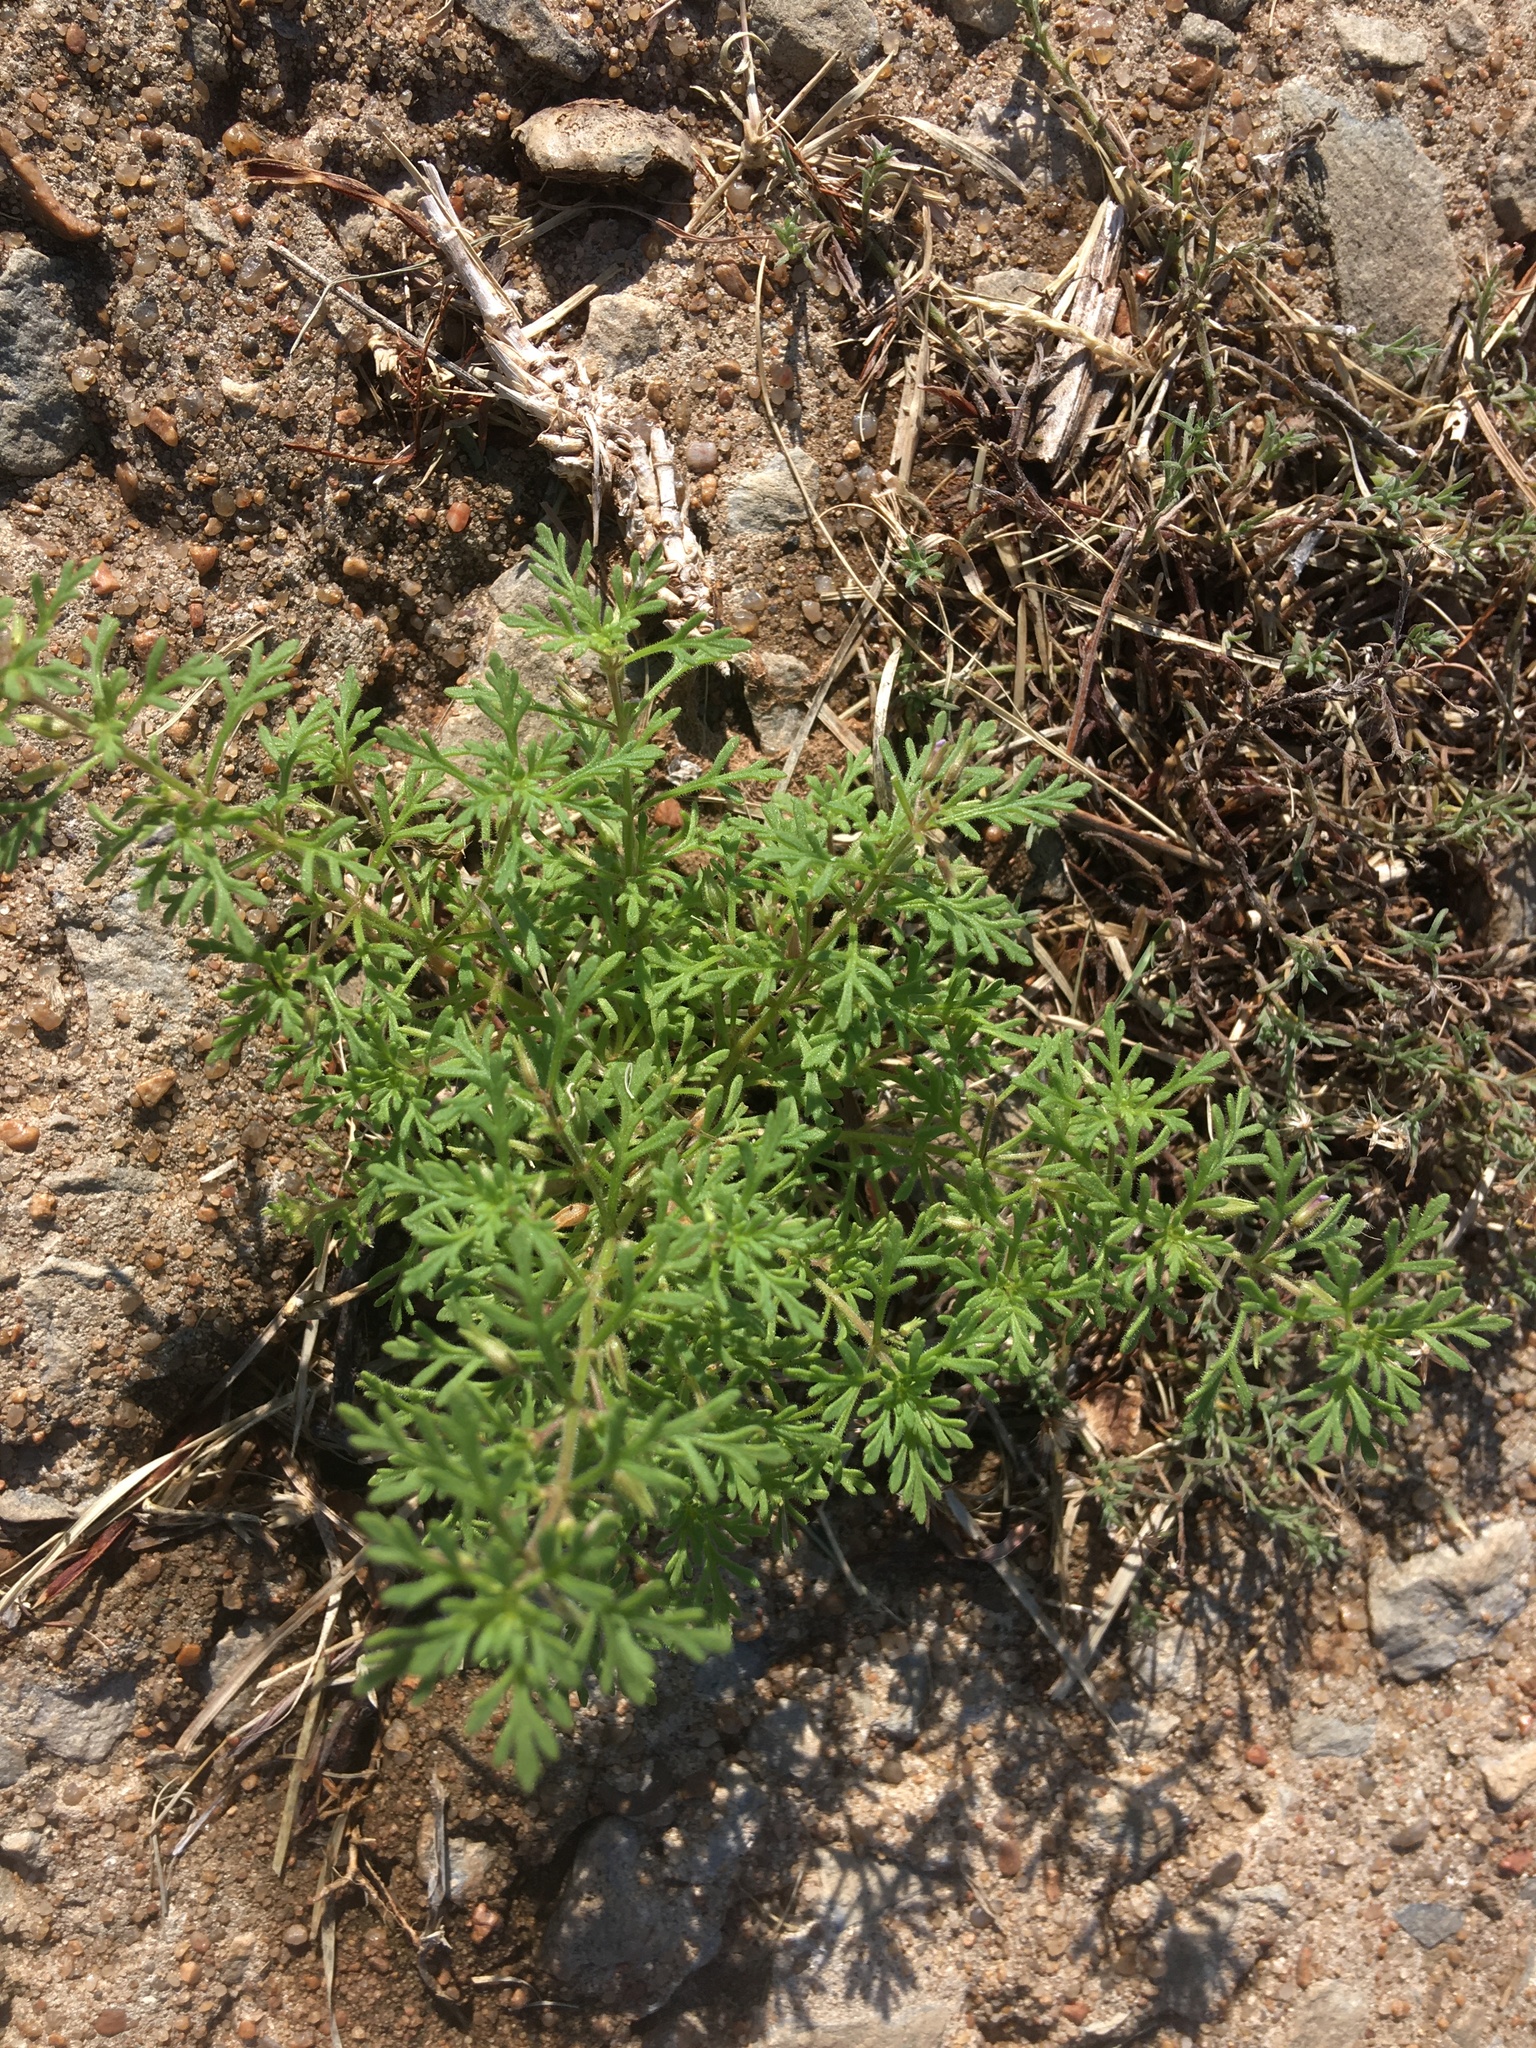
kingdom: Plantae
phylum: Tracheophyta
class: Magnoliopsida
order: Lamiales
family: Plantaginaceae
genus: Leucospora
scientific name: Leucospora multifida
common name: Narrow-leaf paleseed
